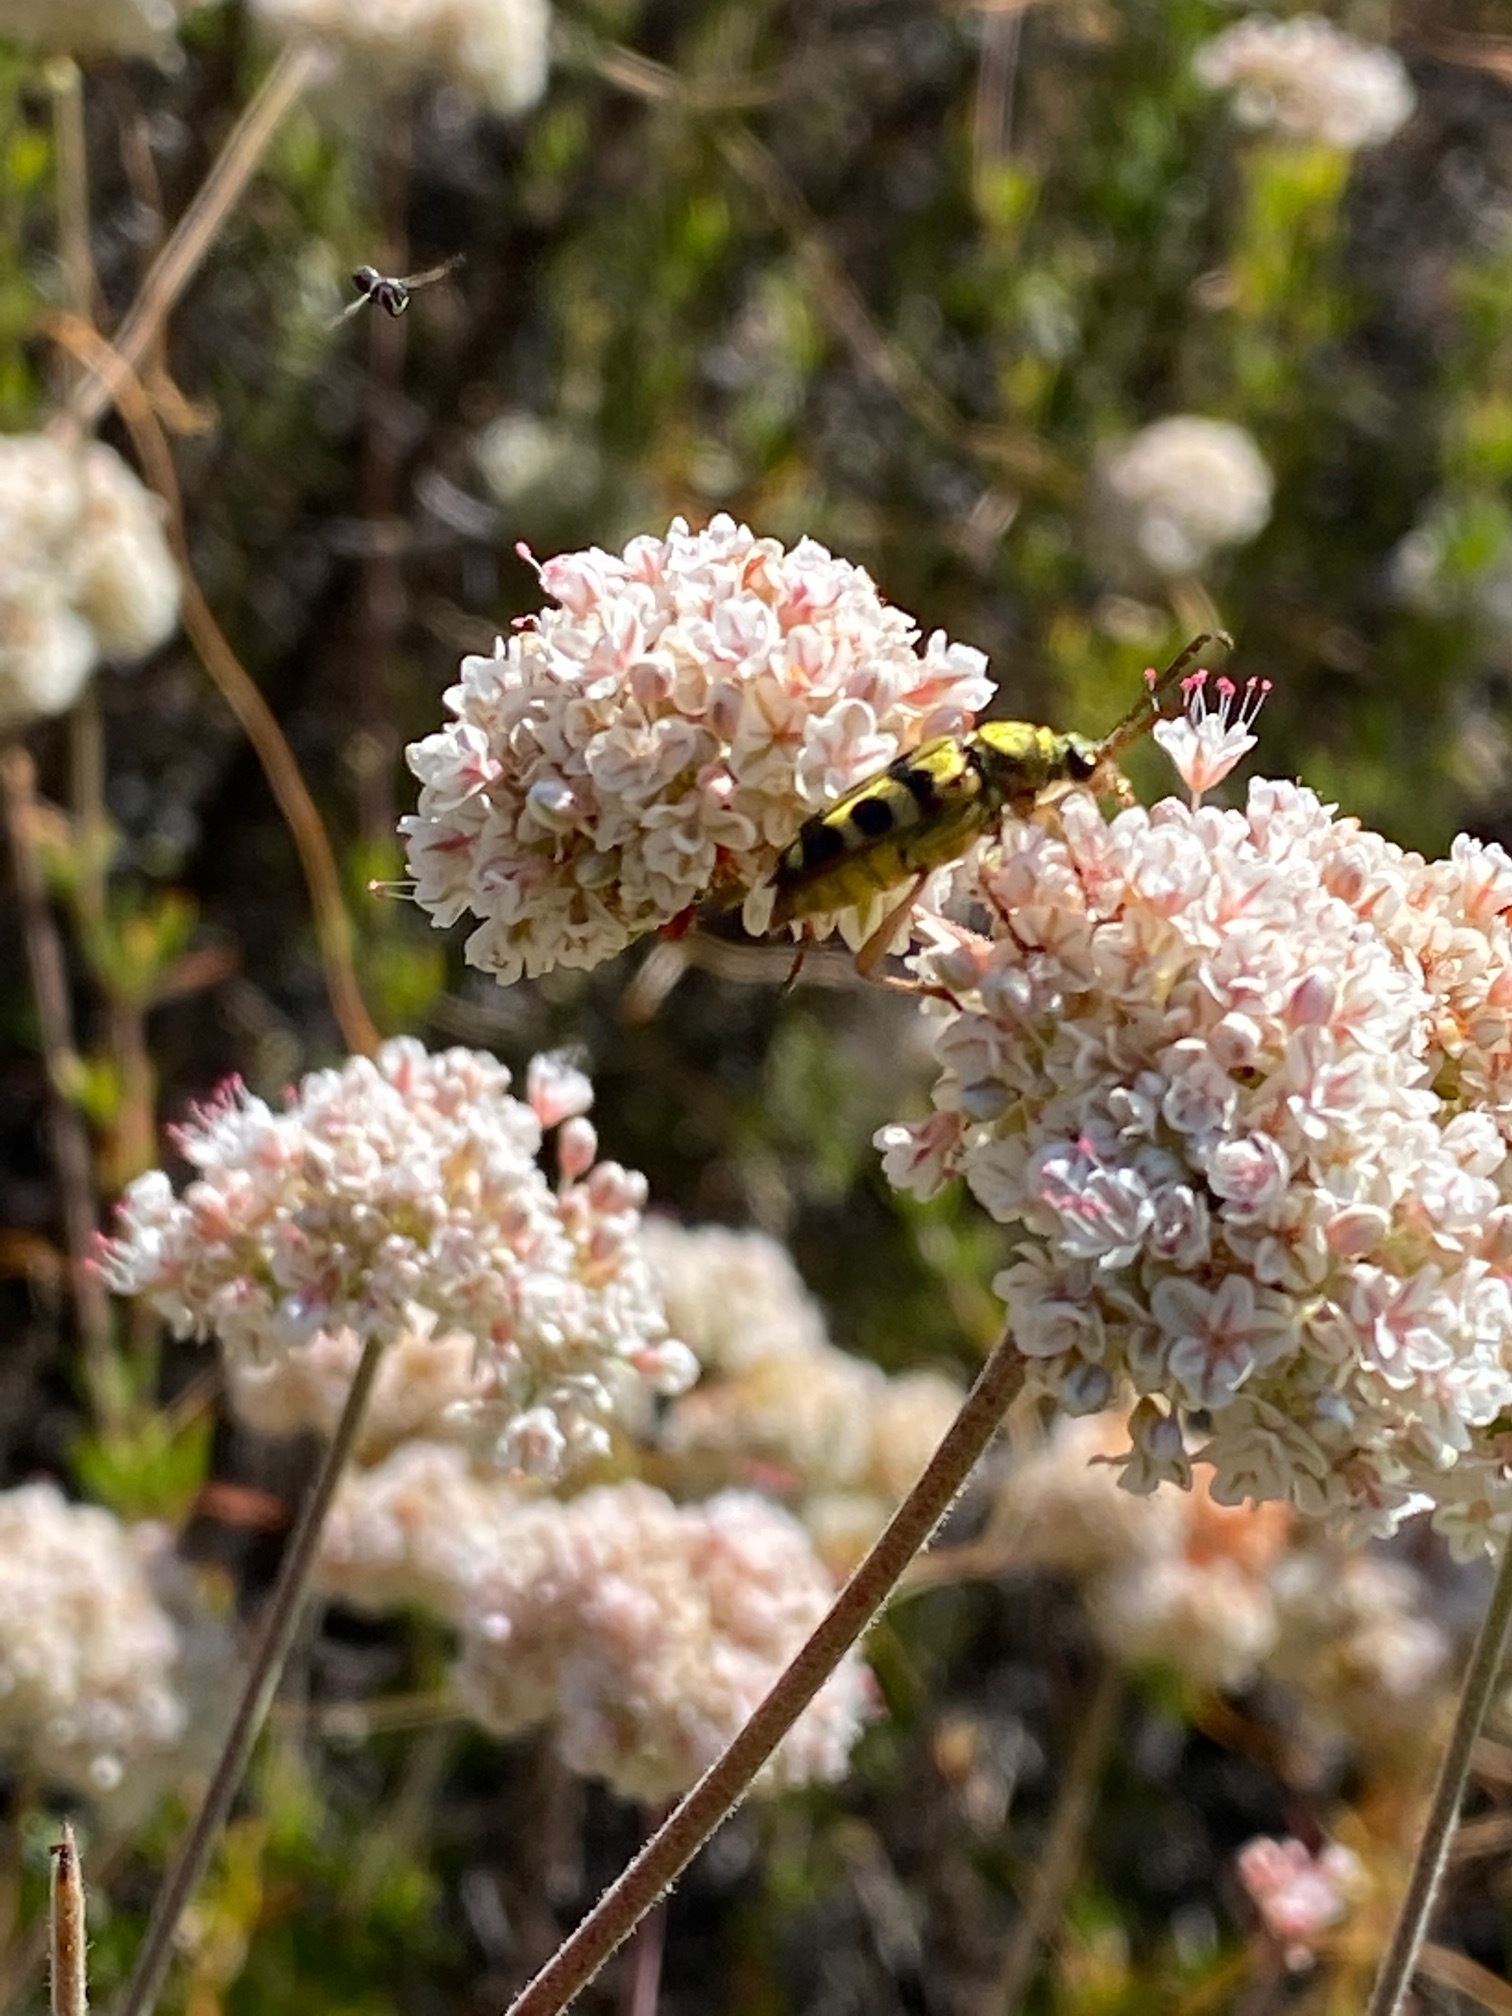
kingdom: Animalia
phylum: Arthropoda
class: Insecta
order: Coleoptera
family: Cerambycidae
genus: Strophiona
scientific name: Strophiona tigrina
